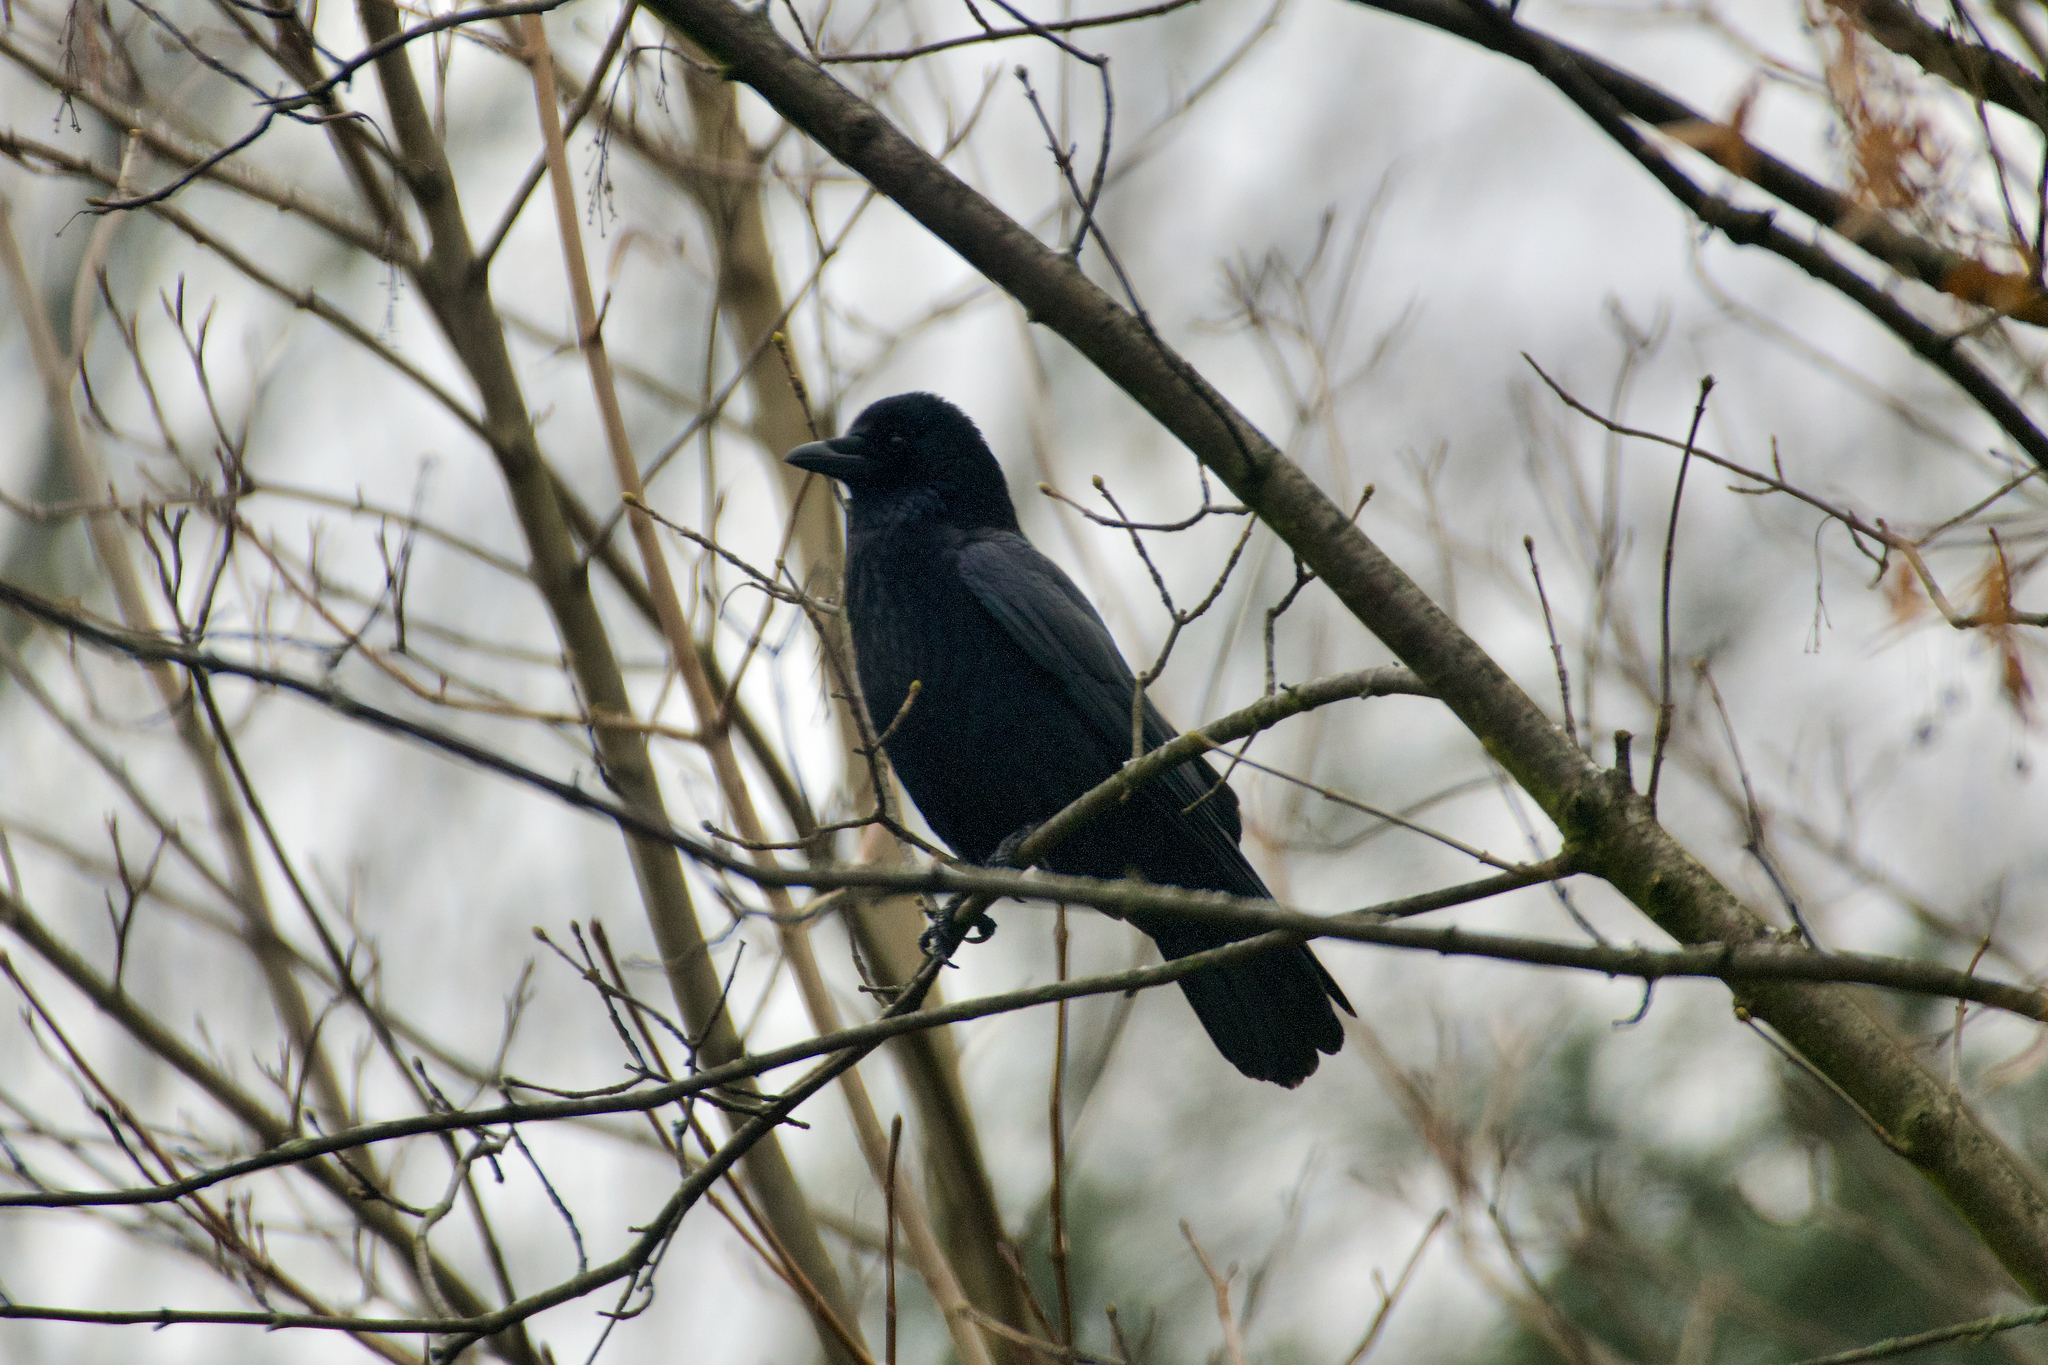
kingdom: Animalia
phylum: Chordata
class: Aves
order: Passeriformes
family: Corvidae
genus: Corvus
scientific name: Corvus corone
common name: Carrion crow
